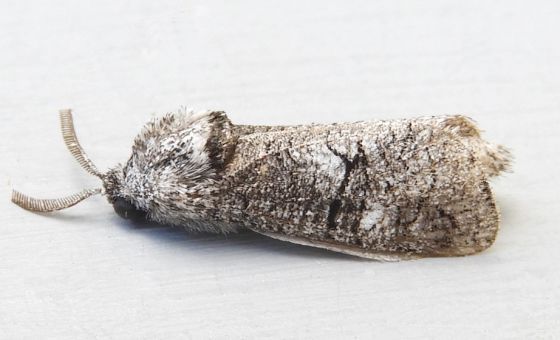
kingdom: Animalia
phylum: Arthropoda
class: Insecta
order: Lepidoptera
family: Cossidae
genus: Fania
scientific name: Fania nanus
